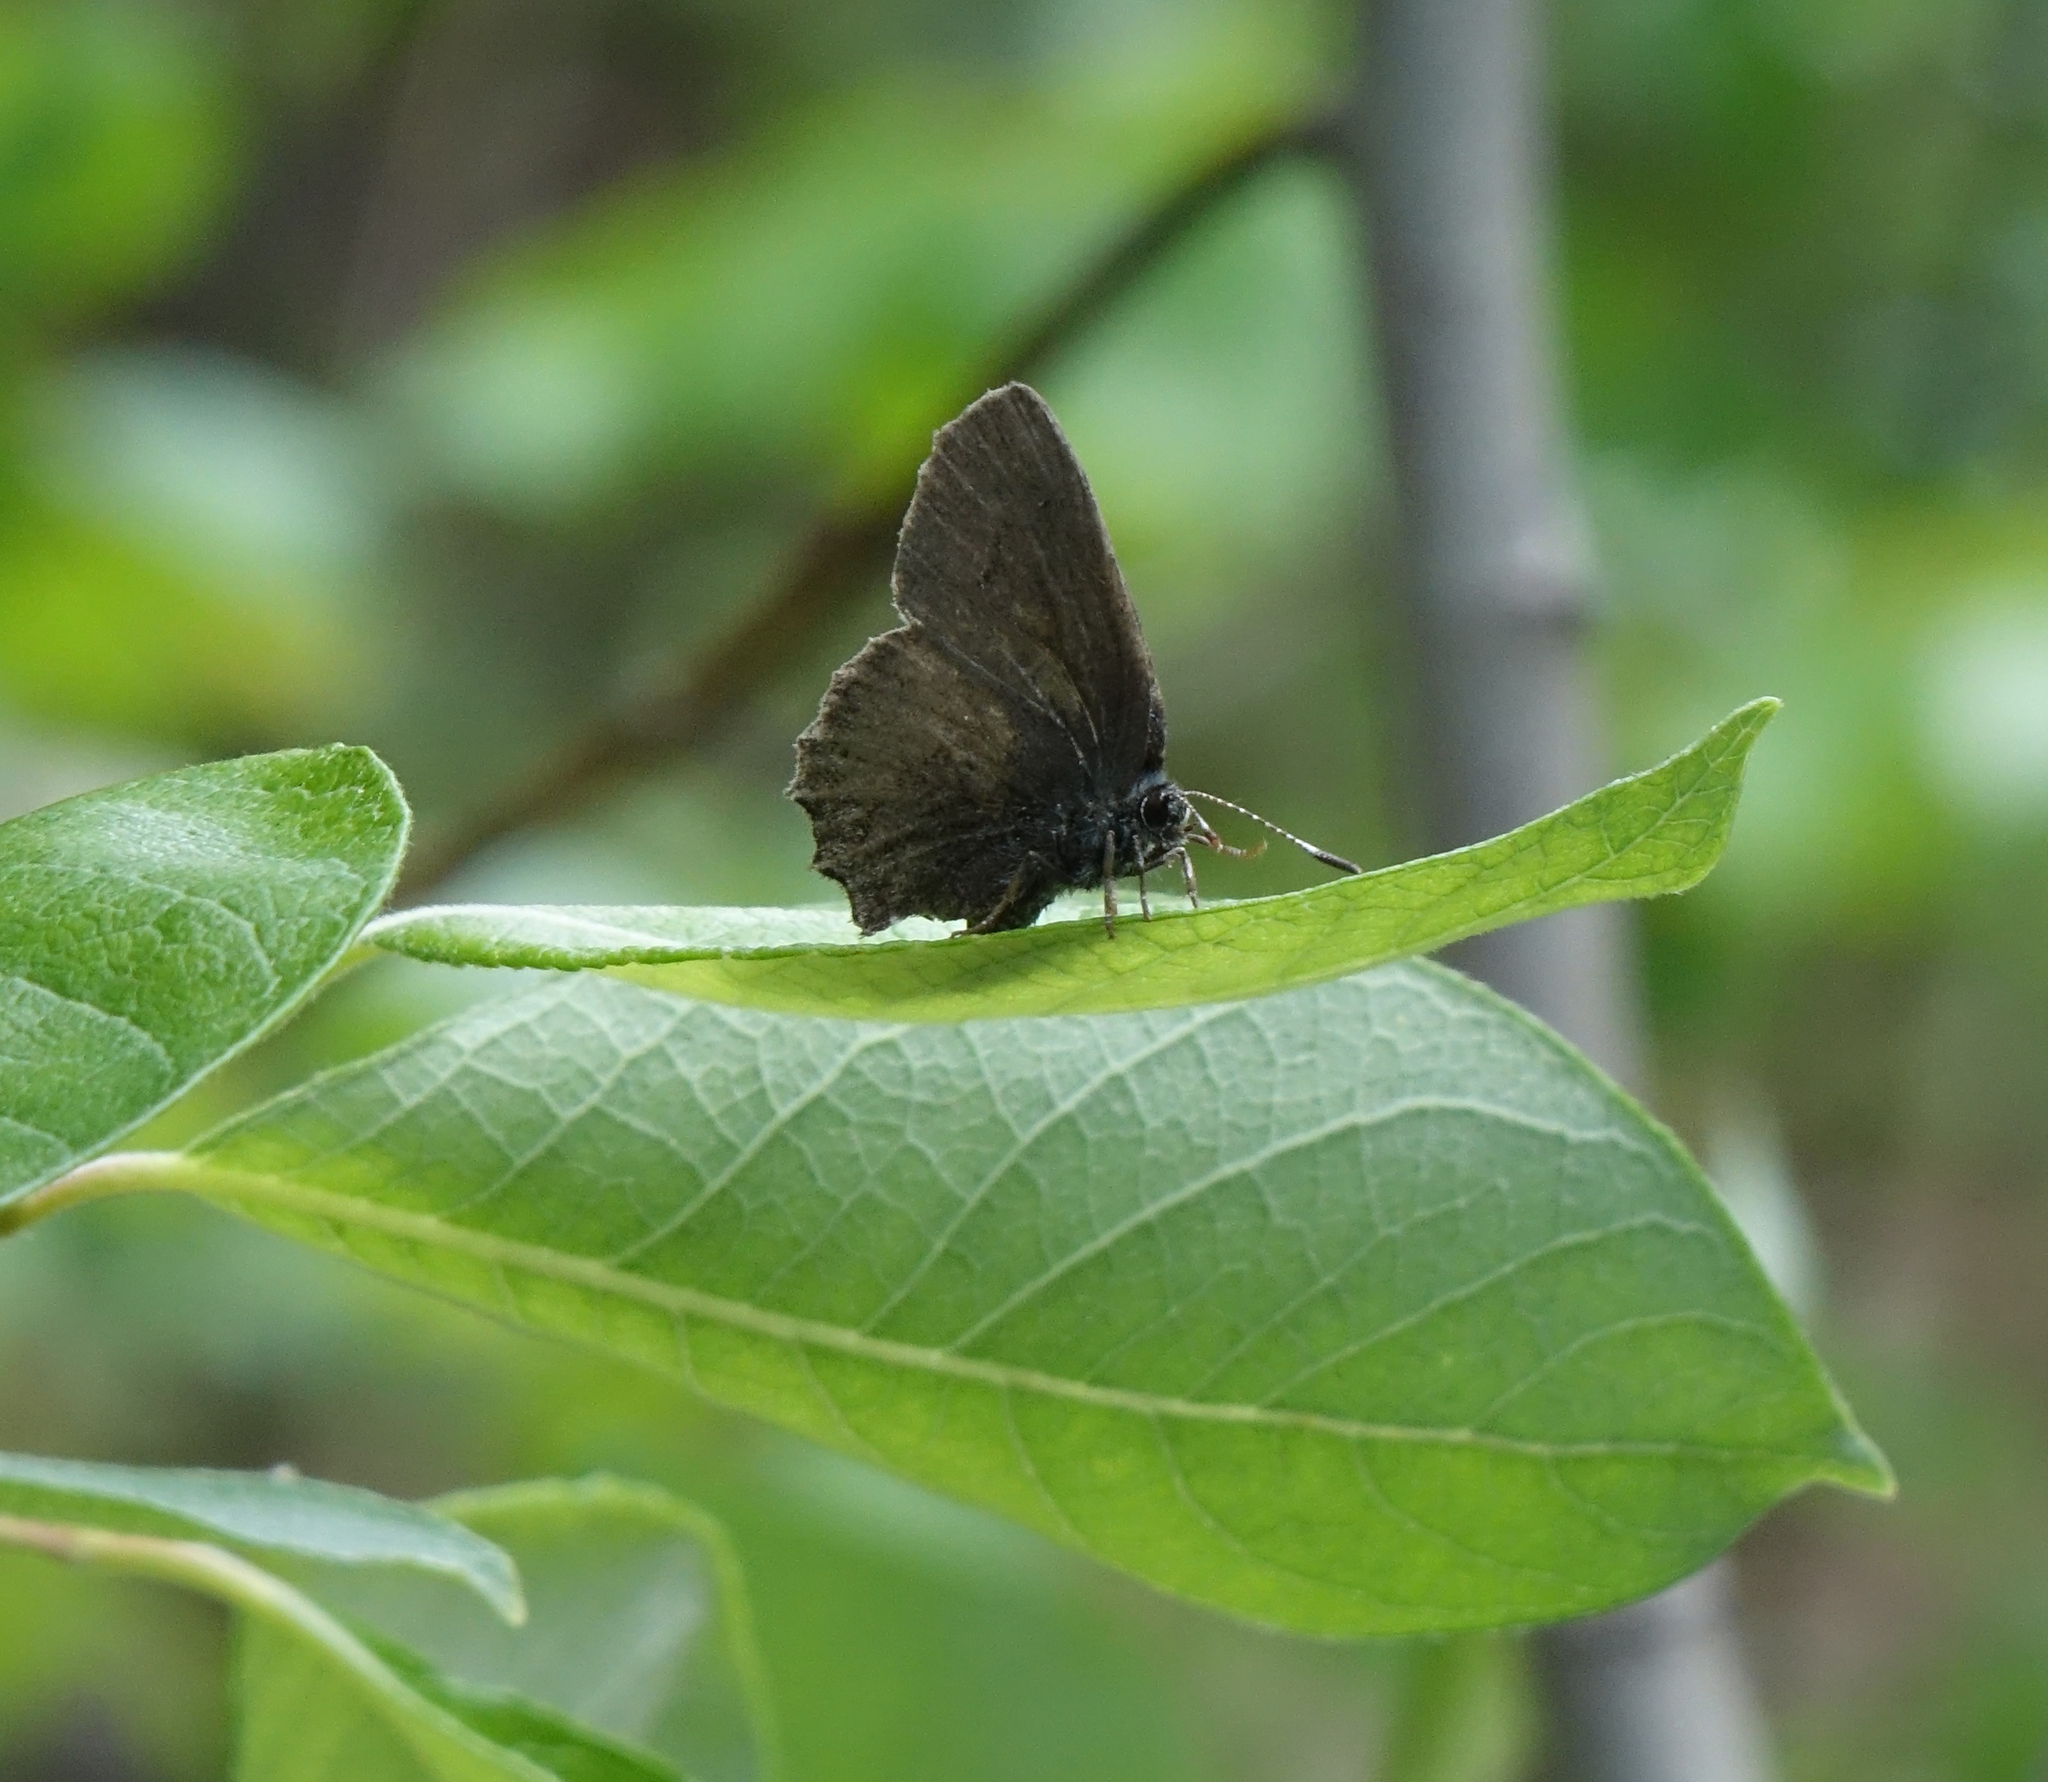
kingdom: Animalia
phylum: Arthropoda
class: Insecta
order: Lepidoptera
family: Lycaenidae
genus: Ginzia
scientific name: Ginzia Ahlbergia frivaldszkyi
